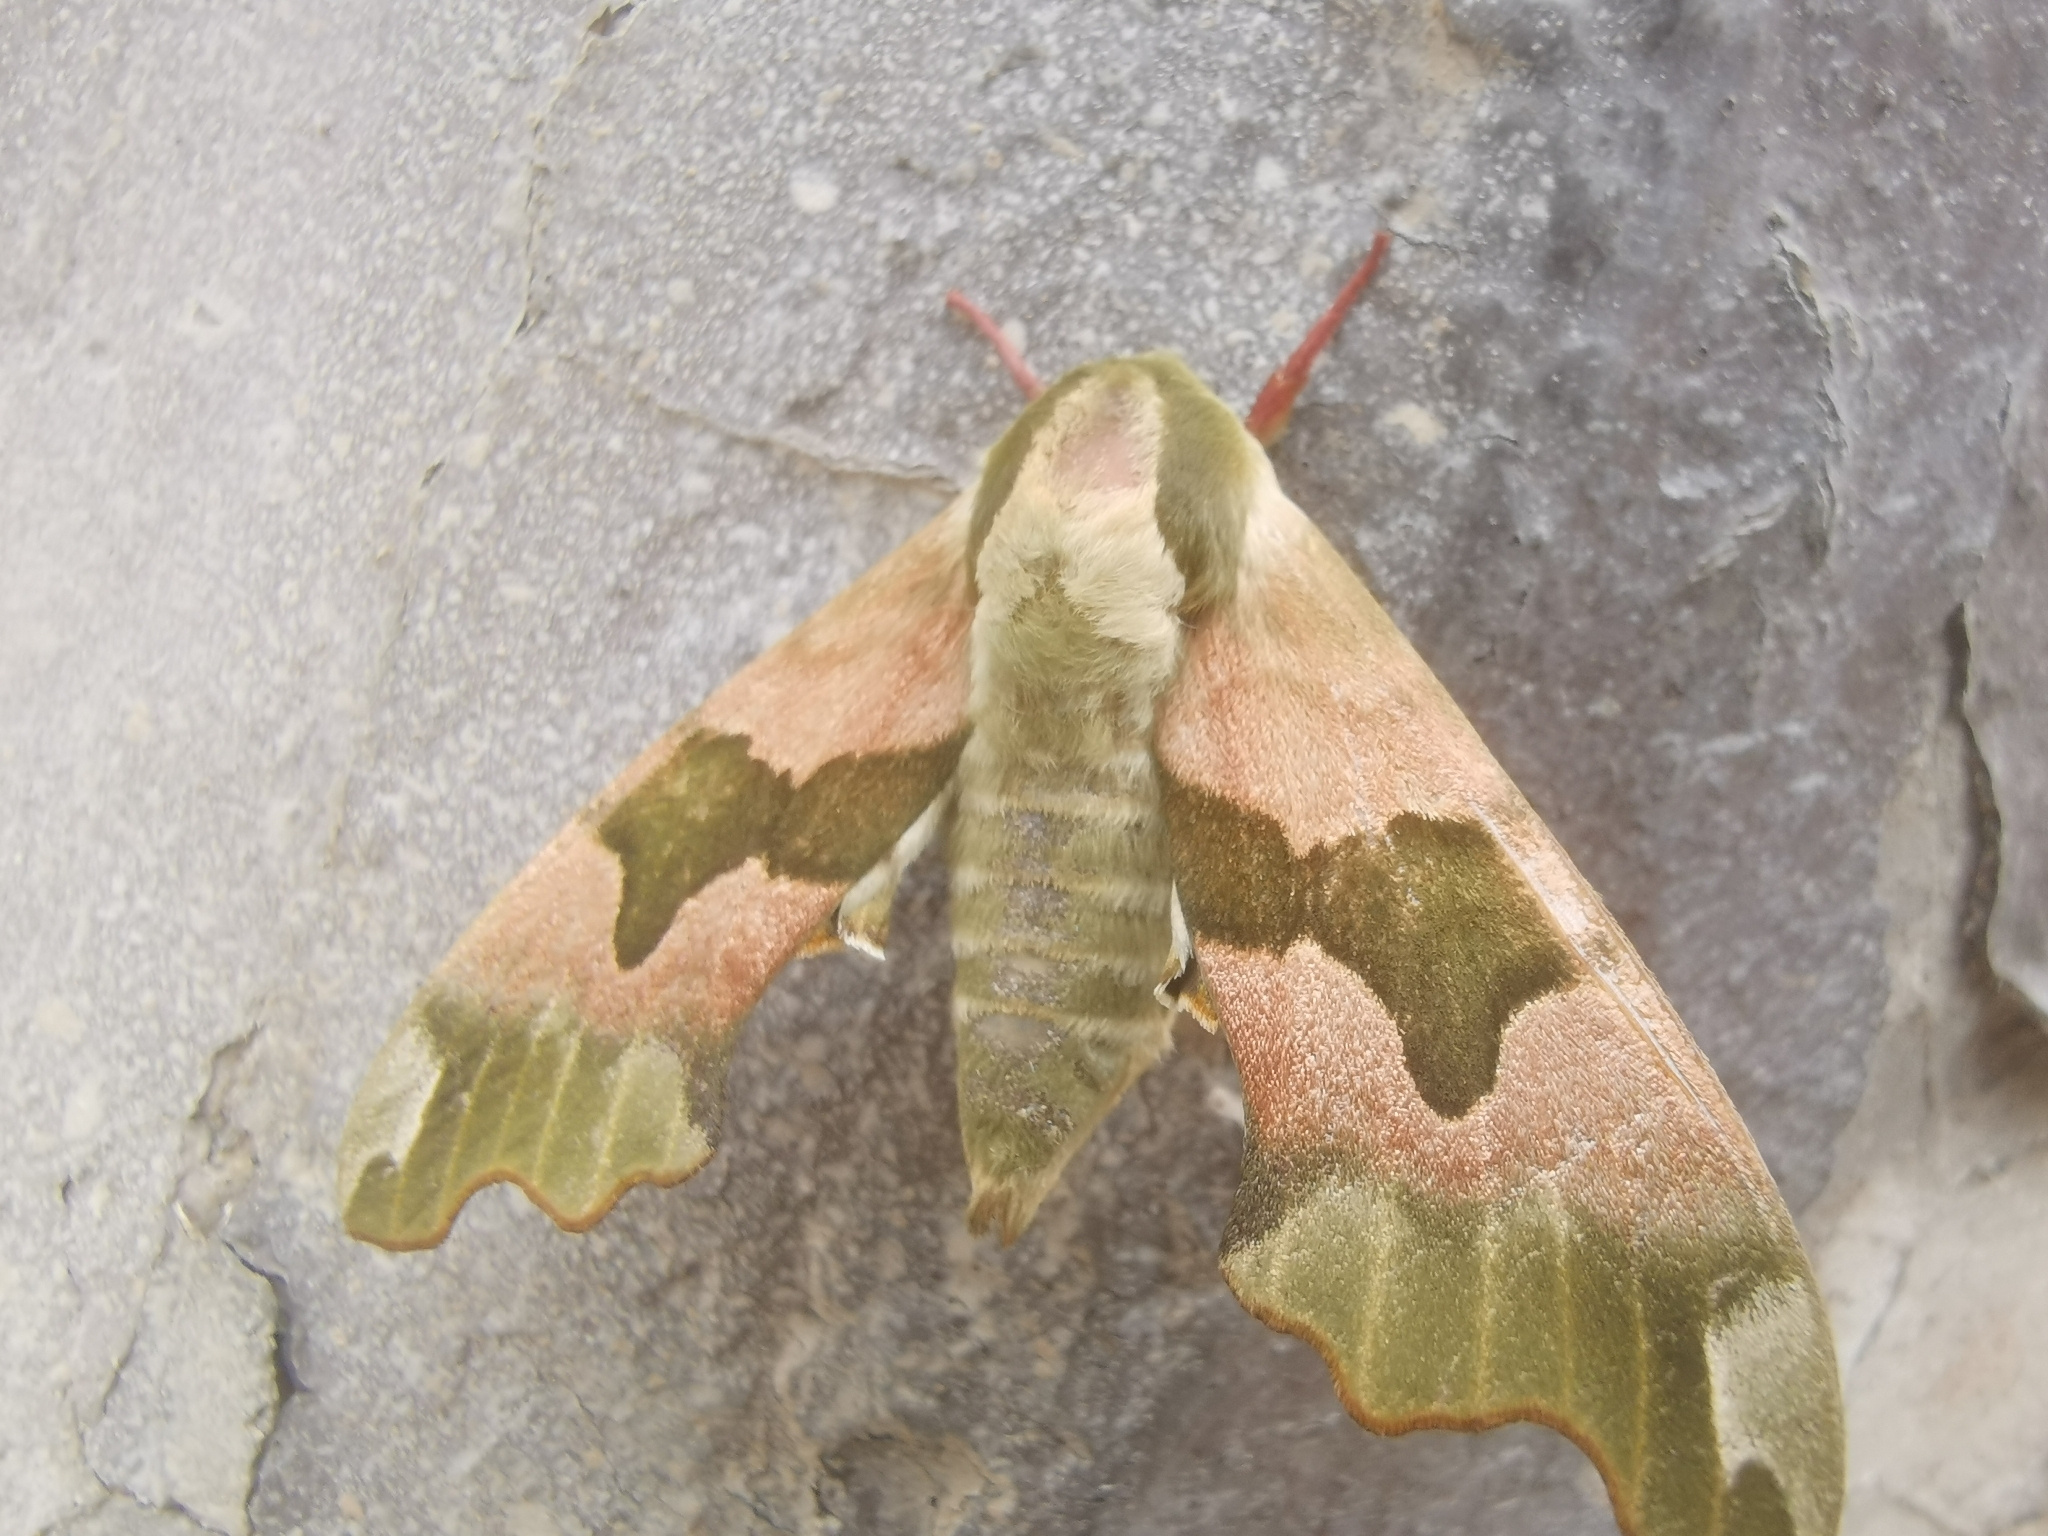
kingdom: Animalia
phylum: Arthropoda
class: Insecta
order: Lepidoptera
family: Sphingidae
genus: Mimas
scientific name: Mimas tiliae
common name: Lime hawk-moth
